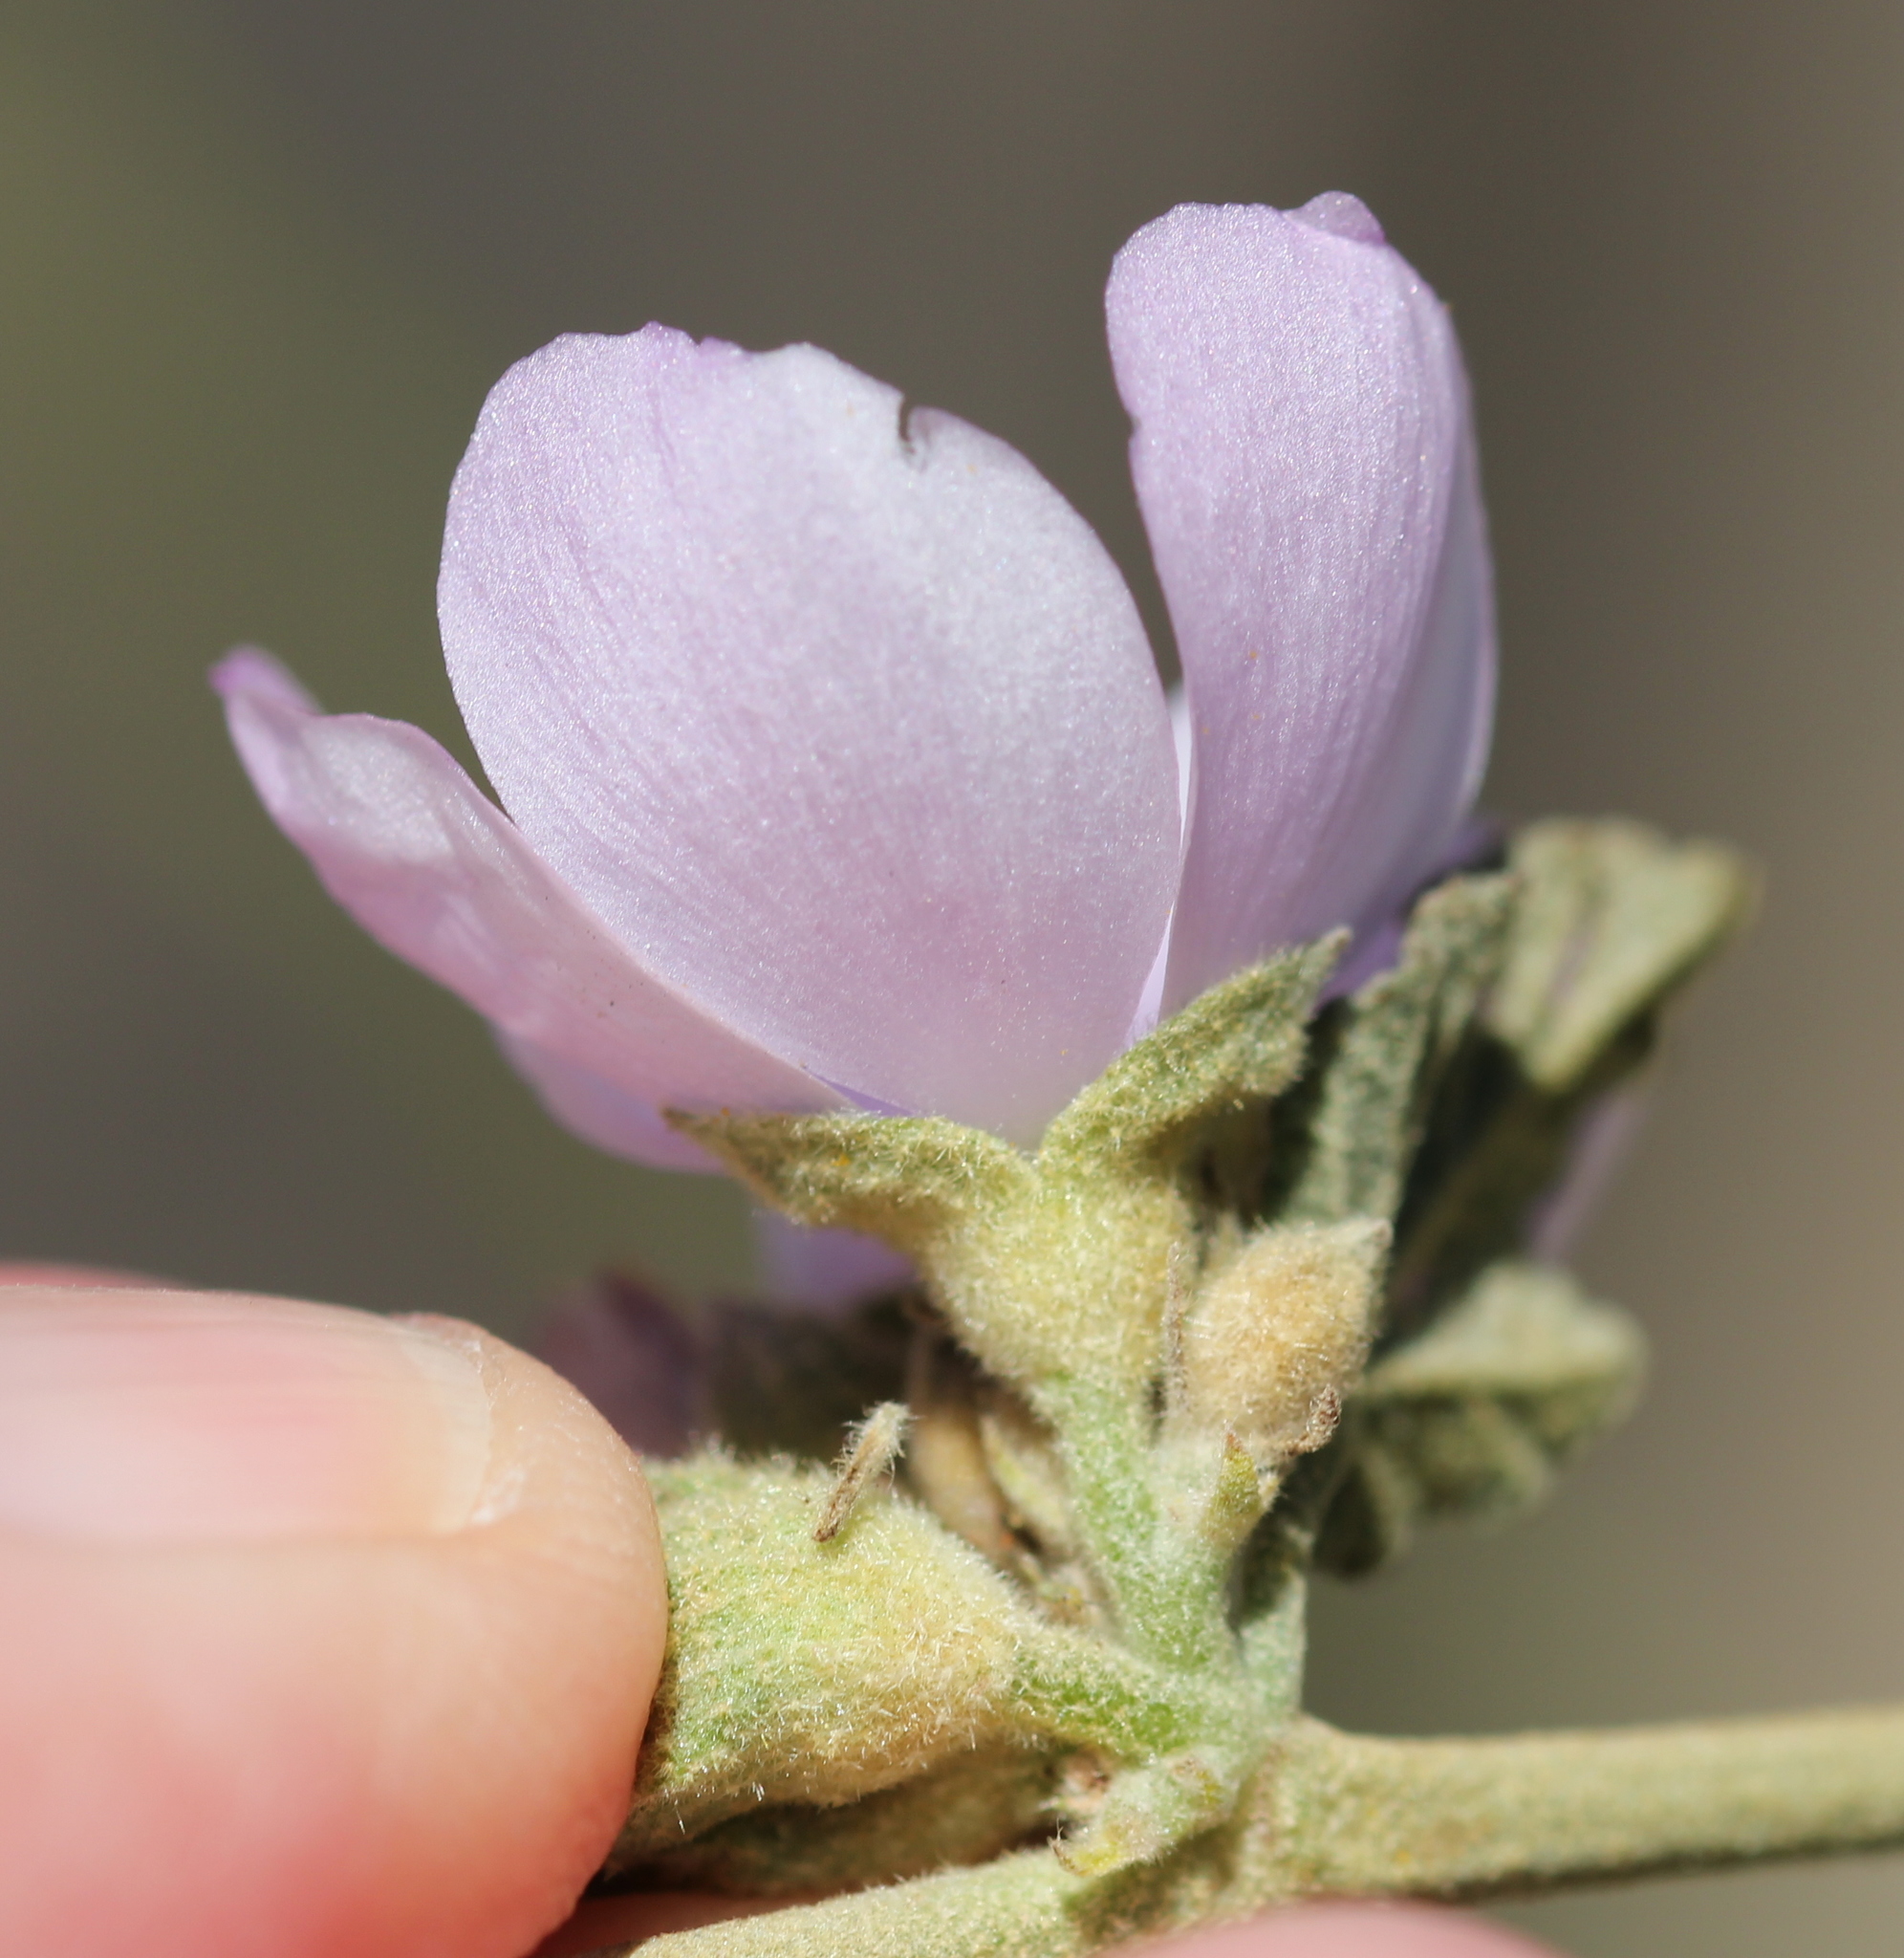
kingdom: Plantae
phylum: Tracheophyta
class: Magnoliopsida
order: Malvales
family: Malvaceae
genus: Malacothamnus
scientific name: Malacothamnus fasciculatus
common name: Sant cruz island bush-mallow
